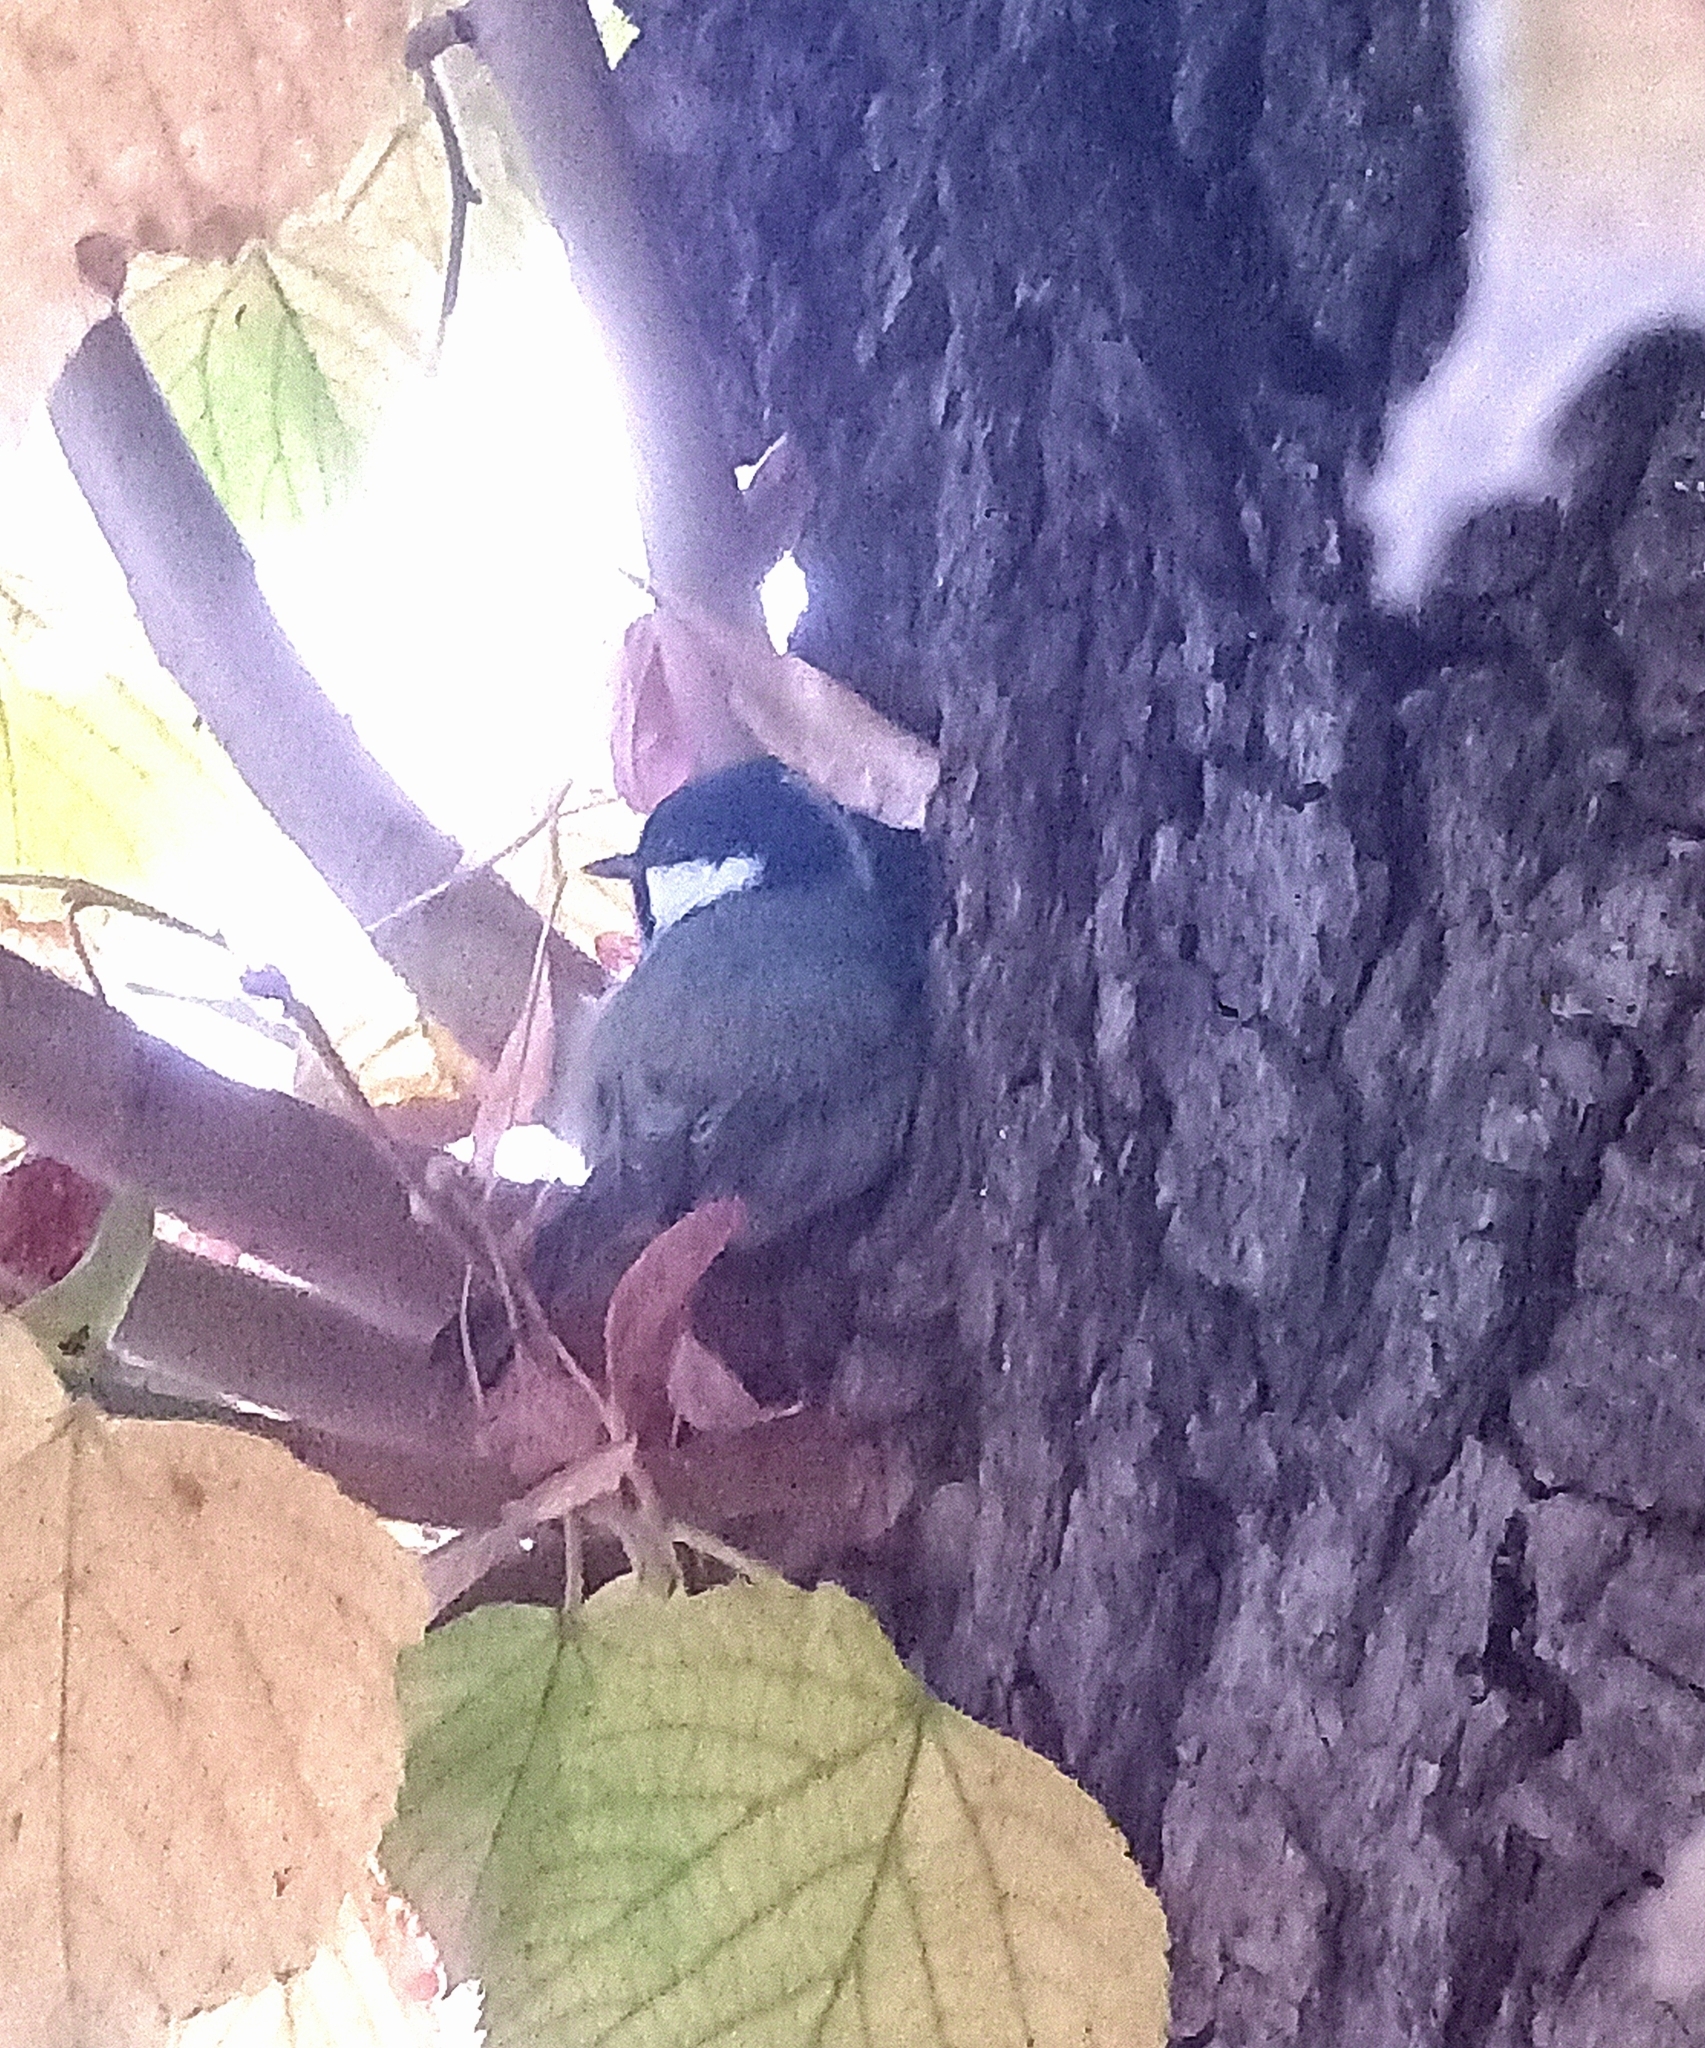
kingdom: Animalia
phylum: Chordata
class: Aves
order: Passeriformes
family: Paridae
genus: Periparus
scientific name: Periparus ater
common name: Coal tit
